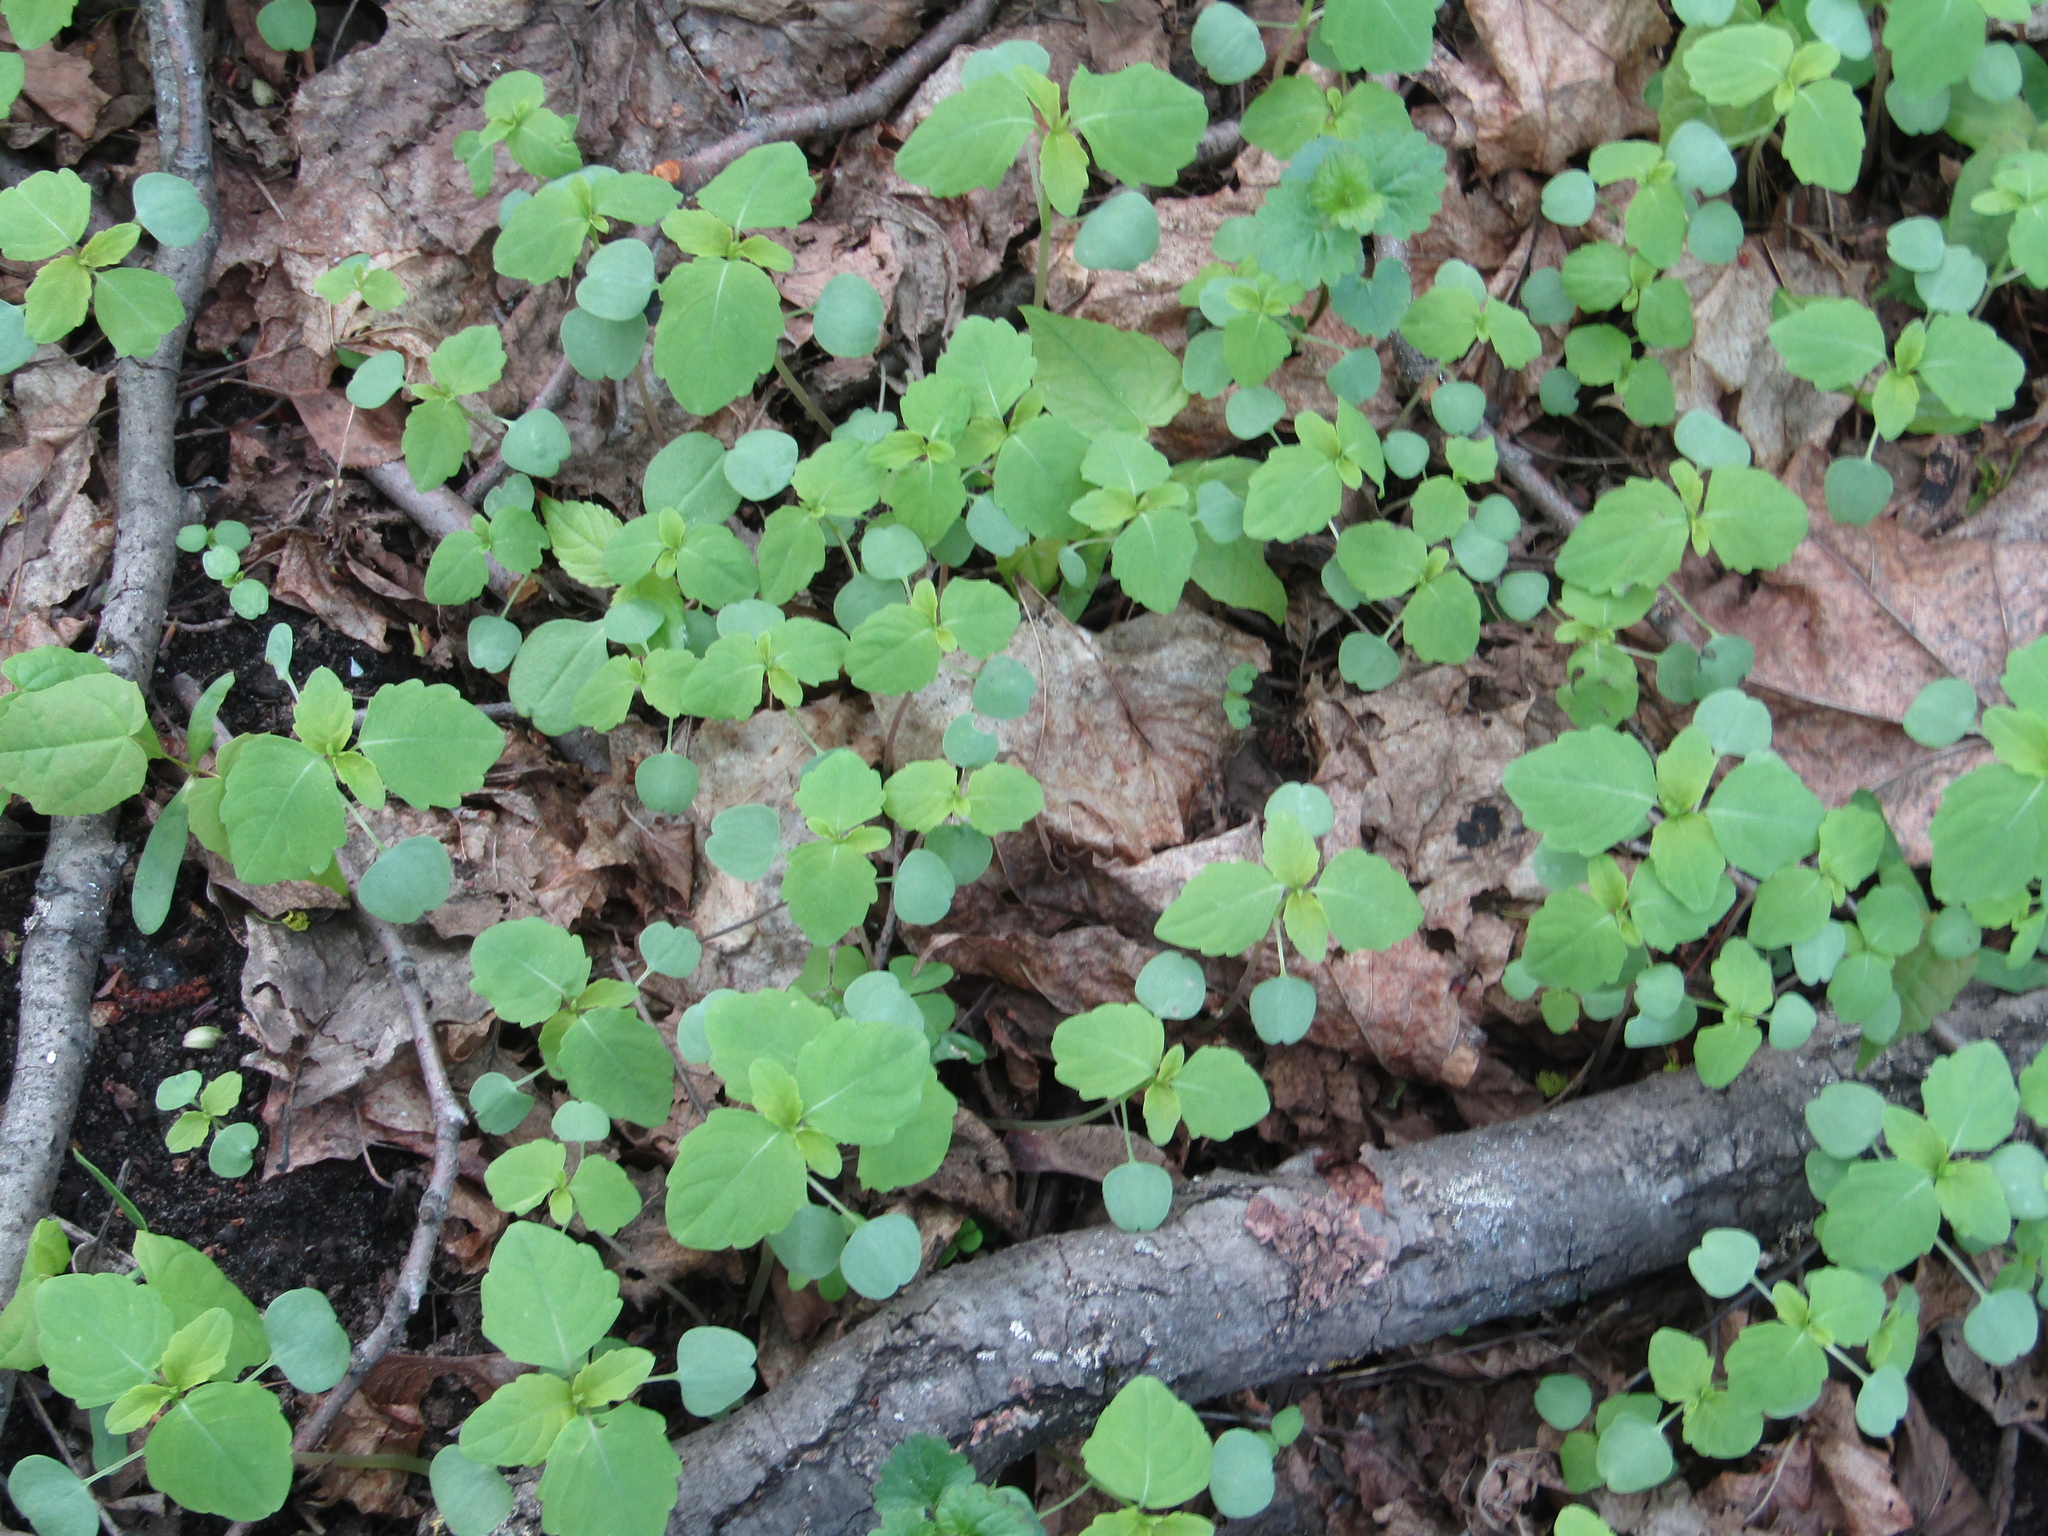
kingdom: Plantae
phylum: Tracheophyta
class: Magnoliopsida
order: Ericales
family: Balsaminaceae
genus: Impatiens
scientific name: Impatiens noli-tangere
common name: Touch-me-not balsam
